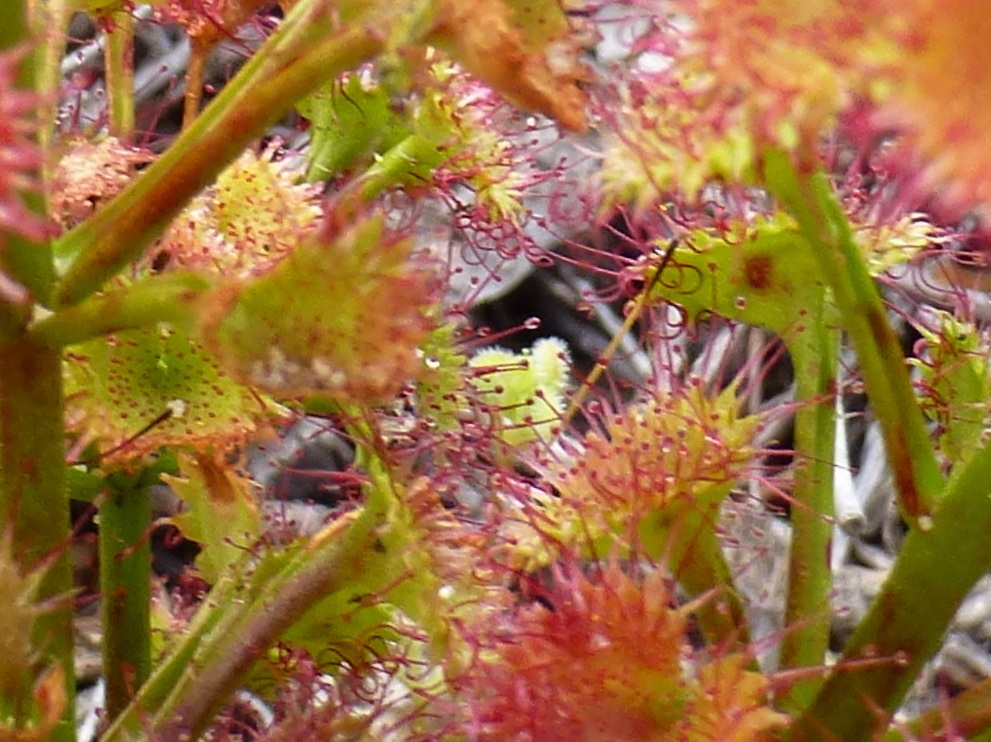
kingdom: Plantae
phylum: Tracheophyta
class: Magnoliopsida
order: Caryophyllales
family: Droseraceae
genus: Drosera
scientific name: Drosera stolonifera
